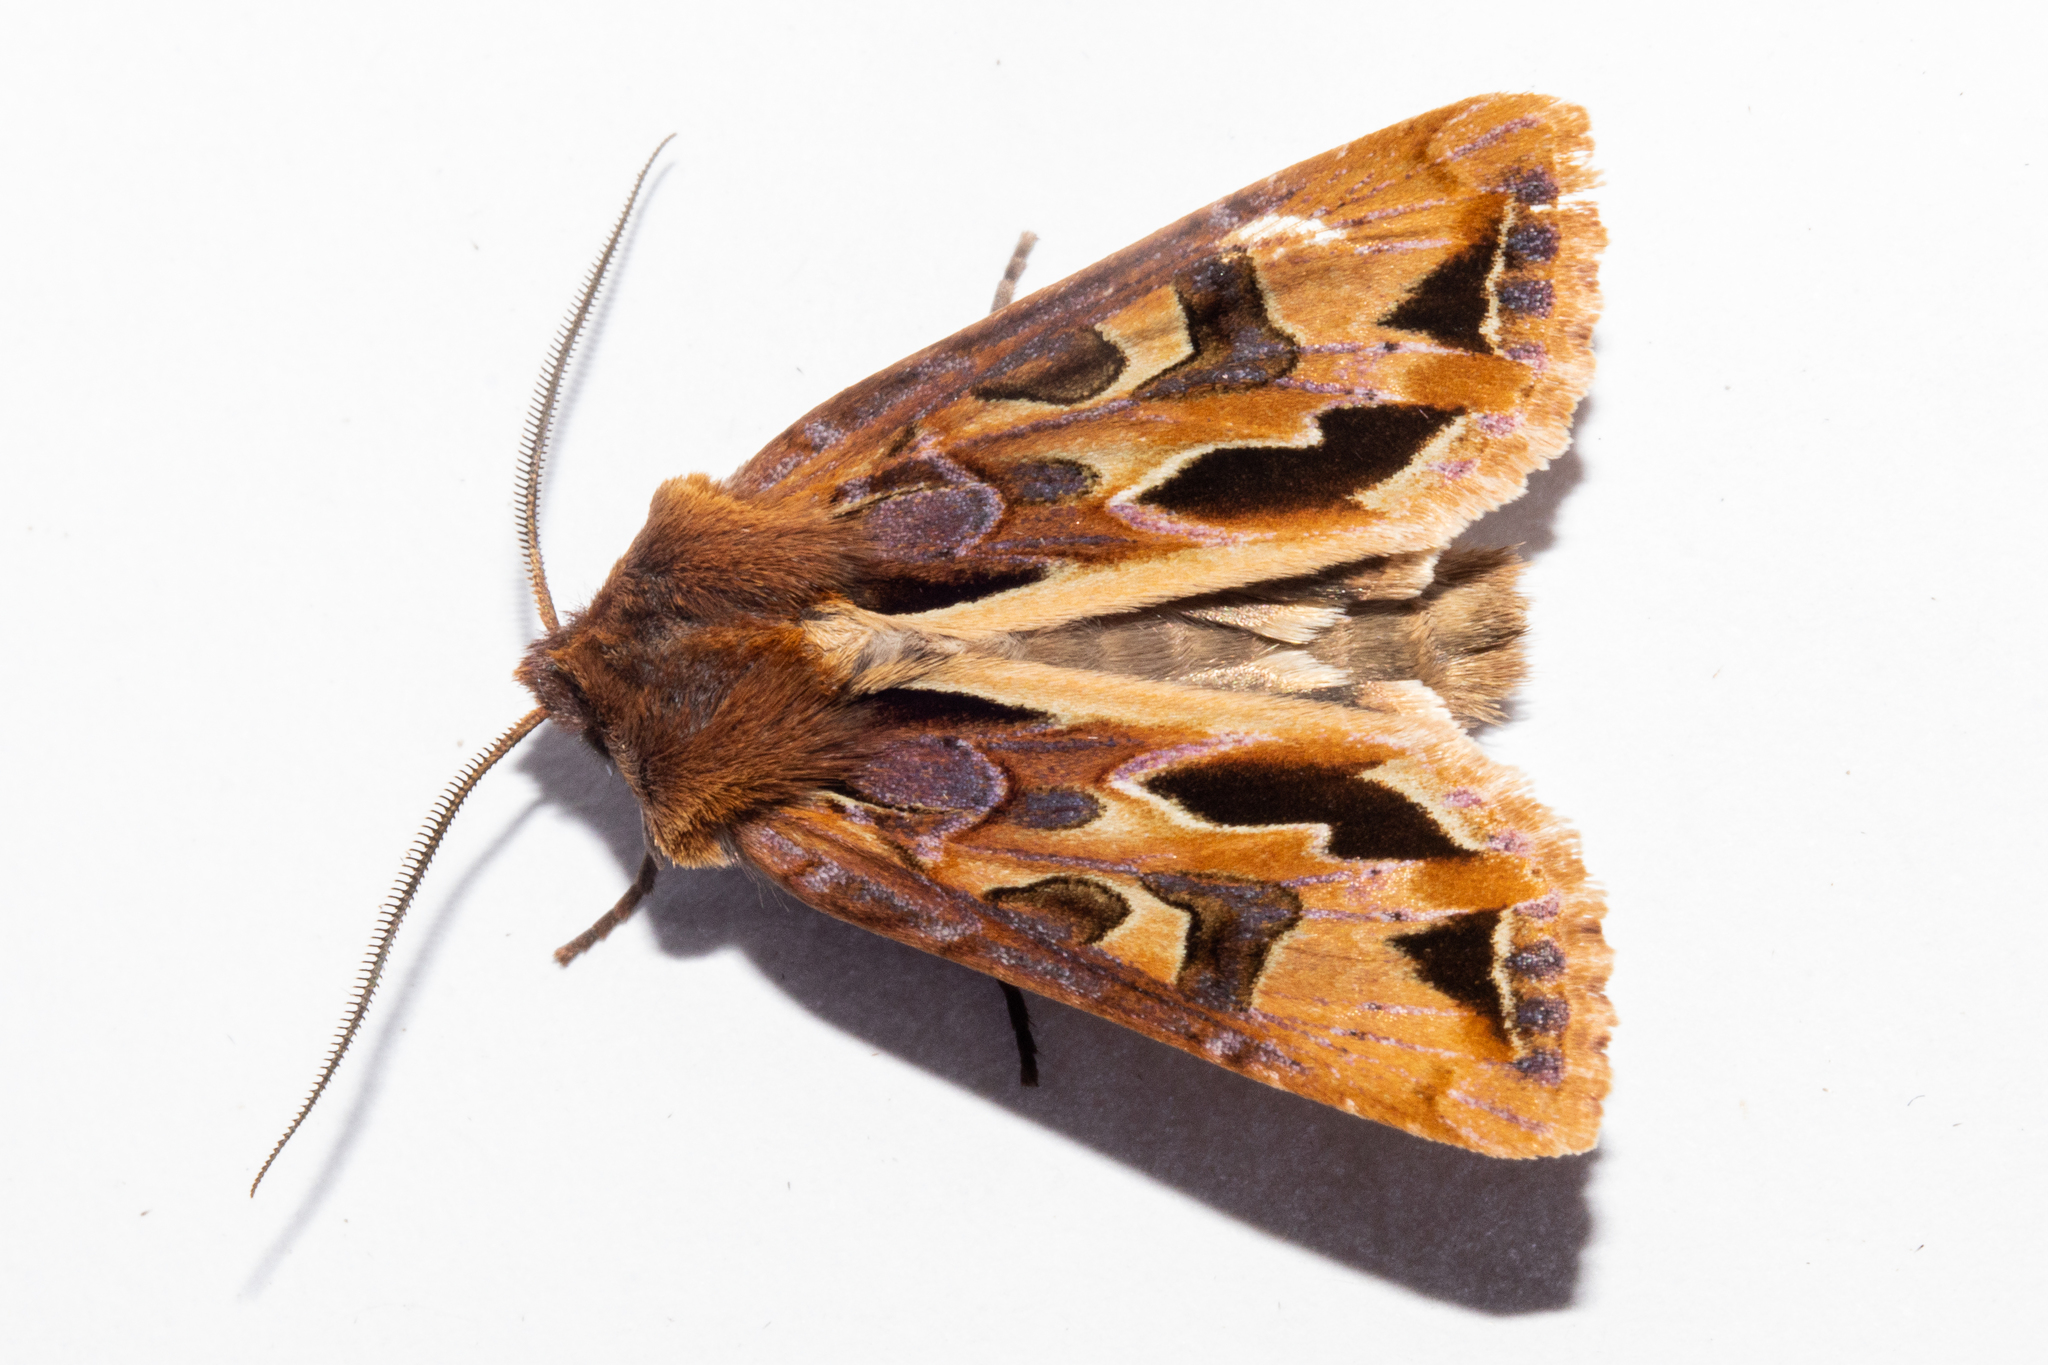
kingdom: Animalia
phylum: Arthropoda
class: Insecta
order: Lepidoptera
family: Noctuidae
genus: Ichneutica
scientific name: Ichneutica
